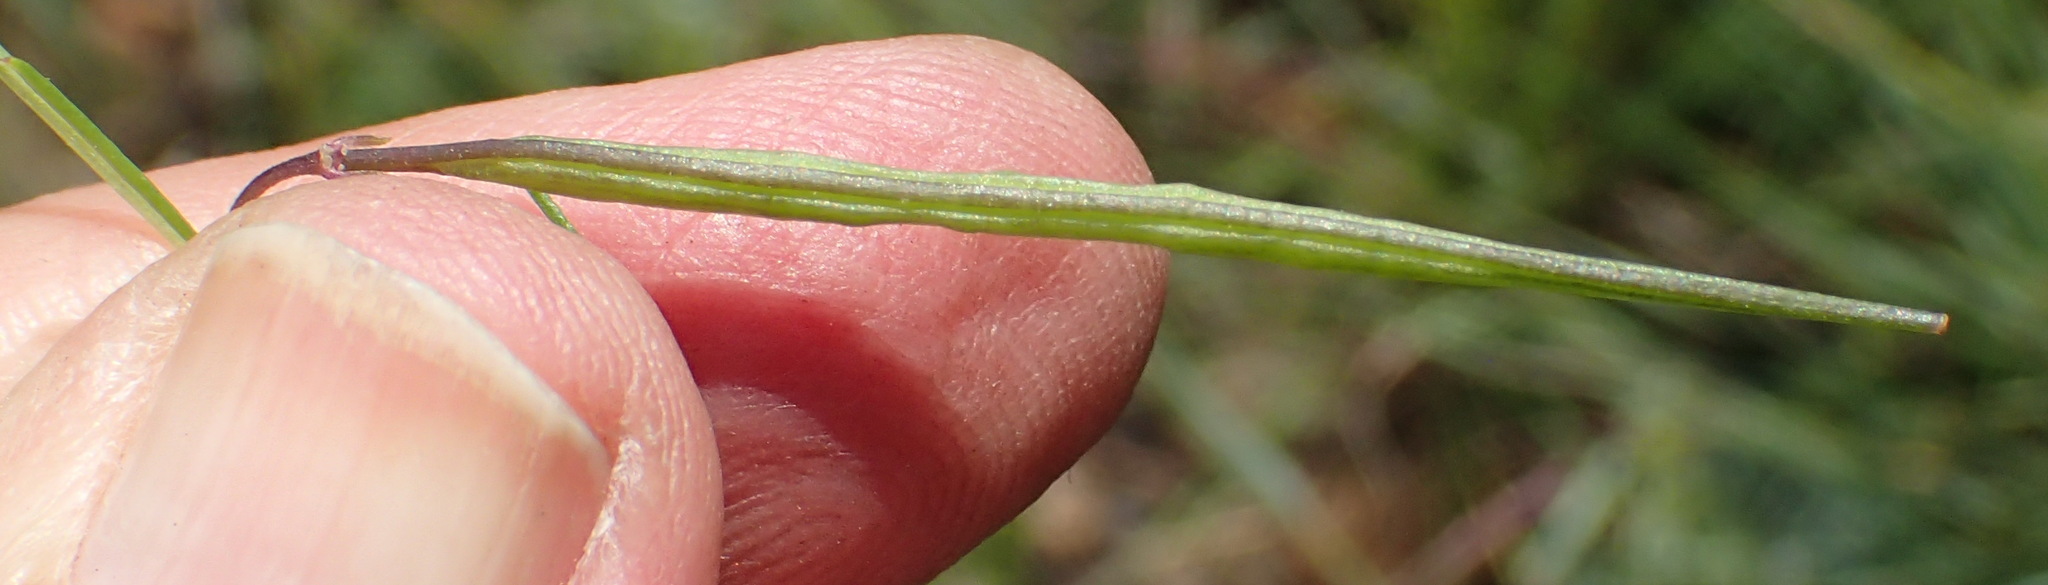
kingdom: Plantae
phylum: Tracheophyta
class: Magnoliopsida
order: Brassicales
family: Cleomaceae
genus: Sieruela
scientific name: Sieruela conrathii
